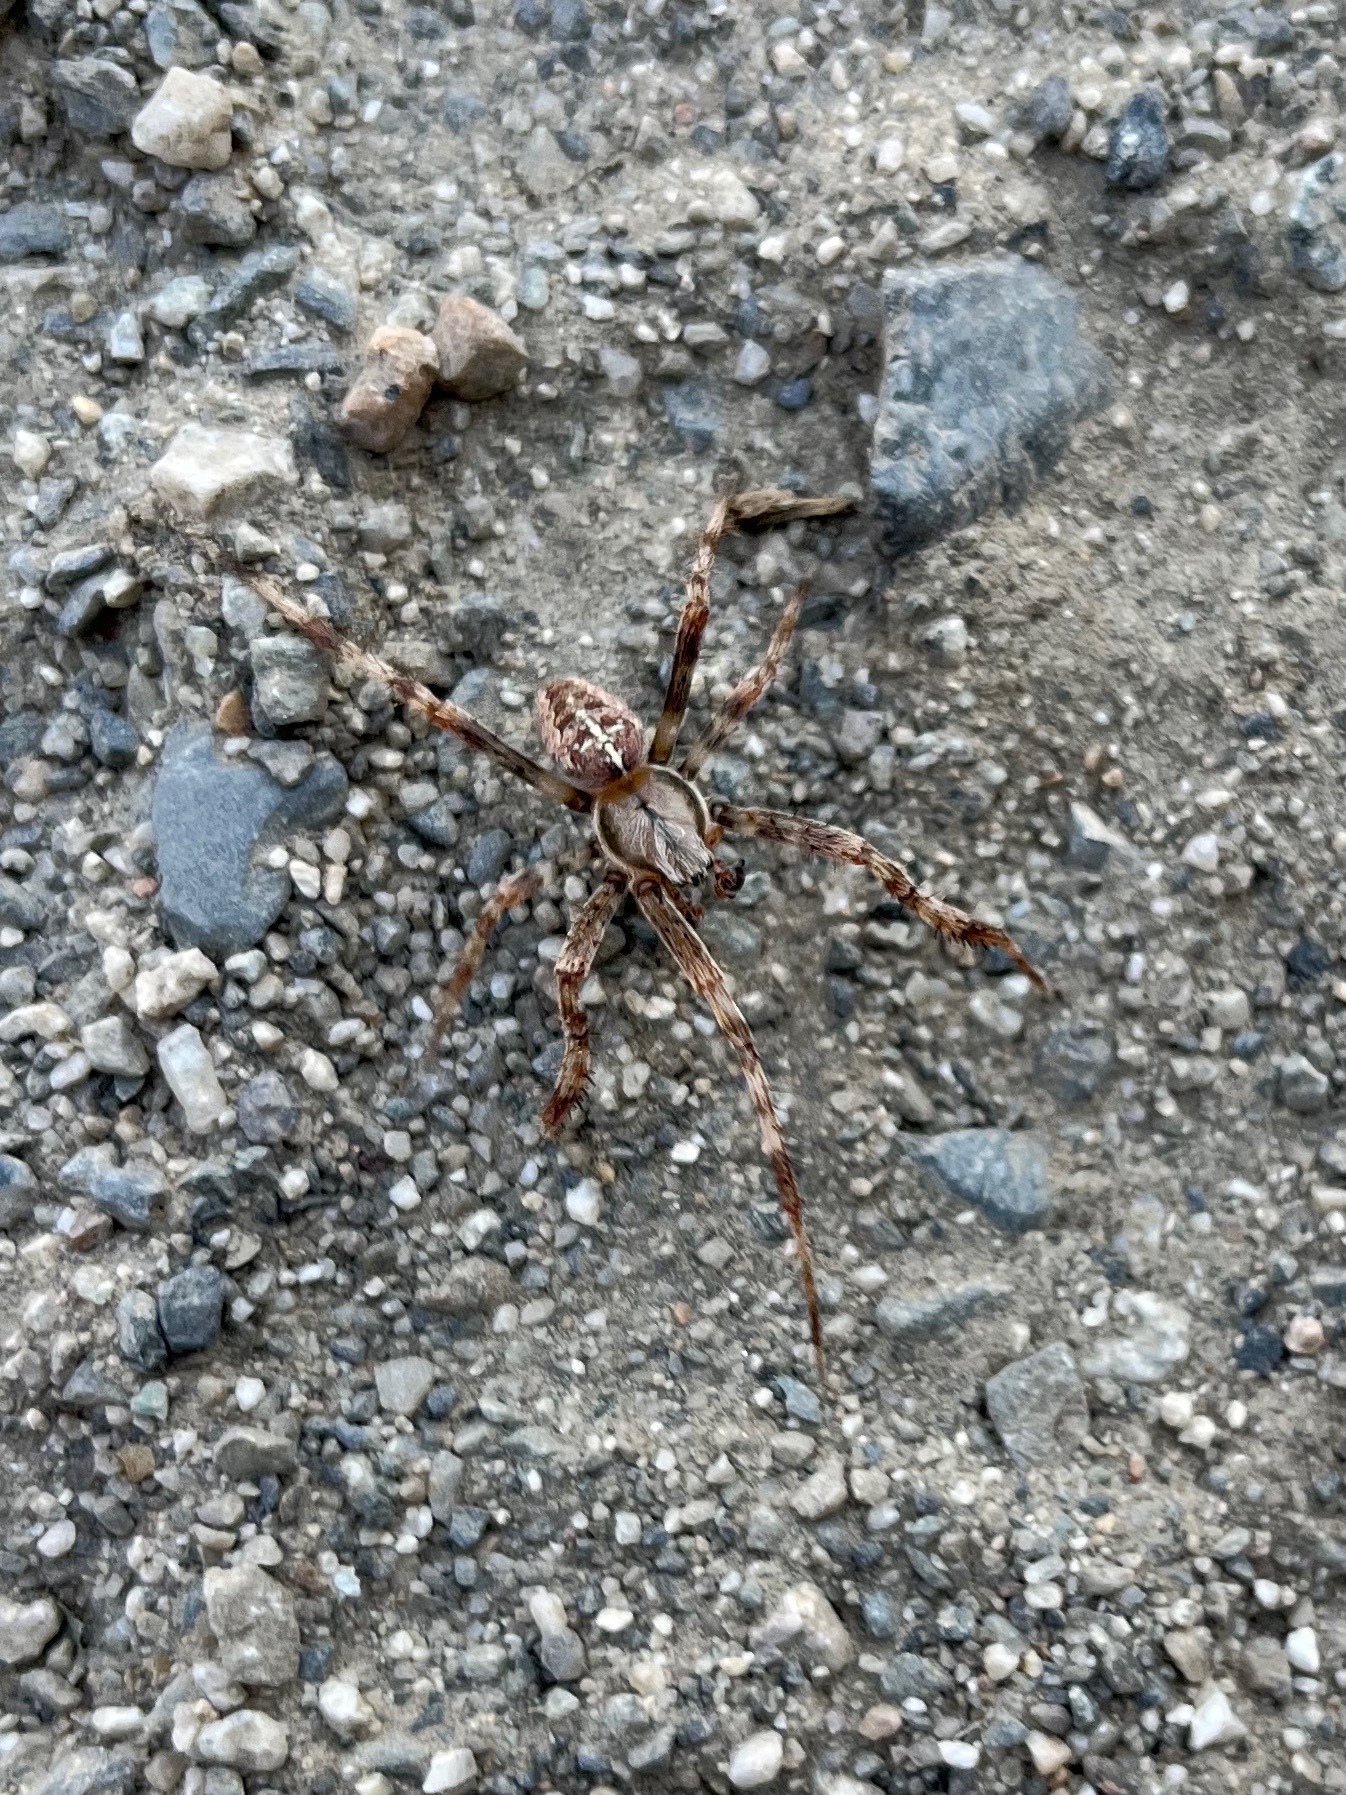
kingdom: Animalia
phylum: Arthropoda
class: Arachnida
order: Araneae
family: Araneidae
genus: Araneus
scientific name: Araneus diadematus
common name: Cross orbweaver
